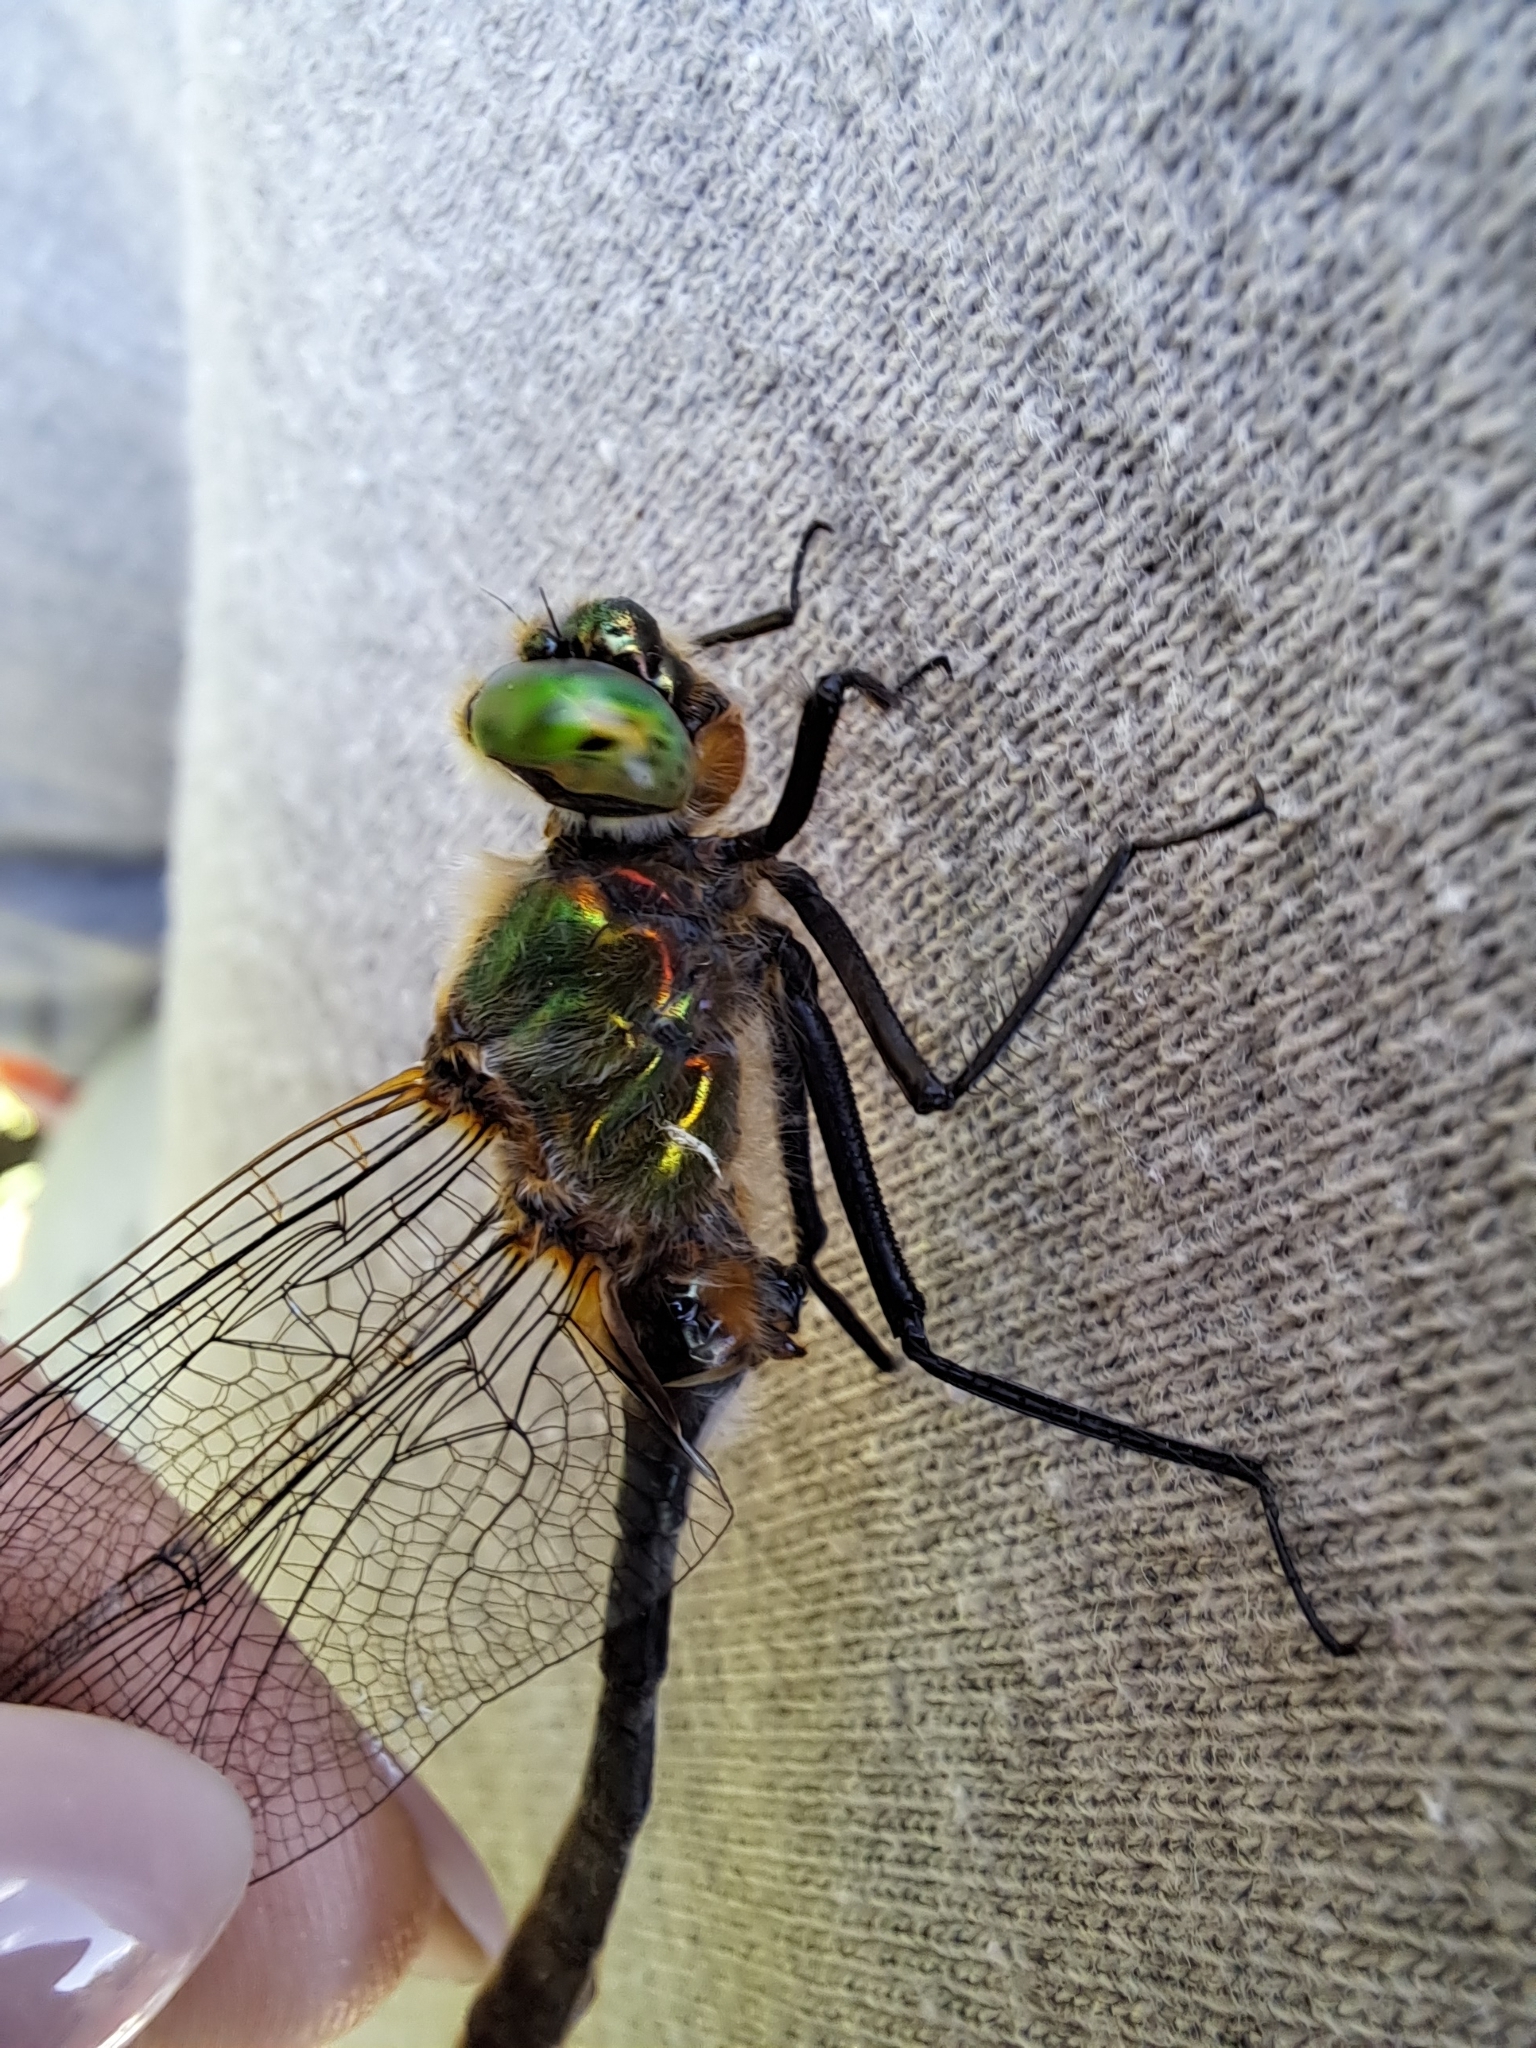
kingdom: Animalia
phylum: Arthropoda
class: Insecta
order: Odonata
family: Corduliidae
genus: Cordulia
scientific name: Cordulia aenea
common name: Downy emerald
